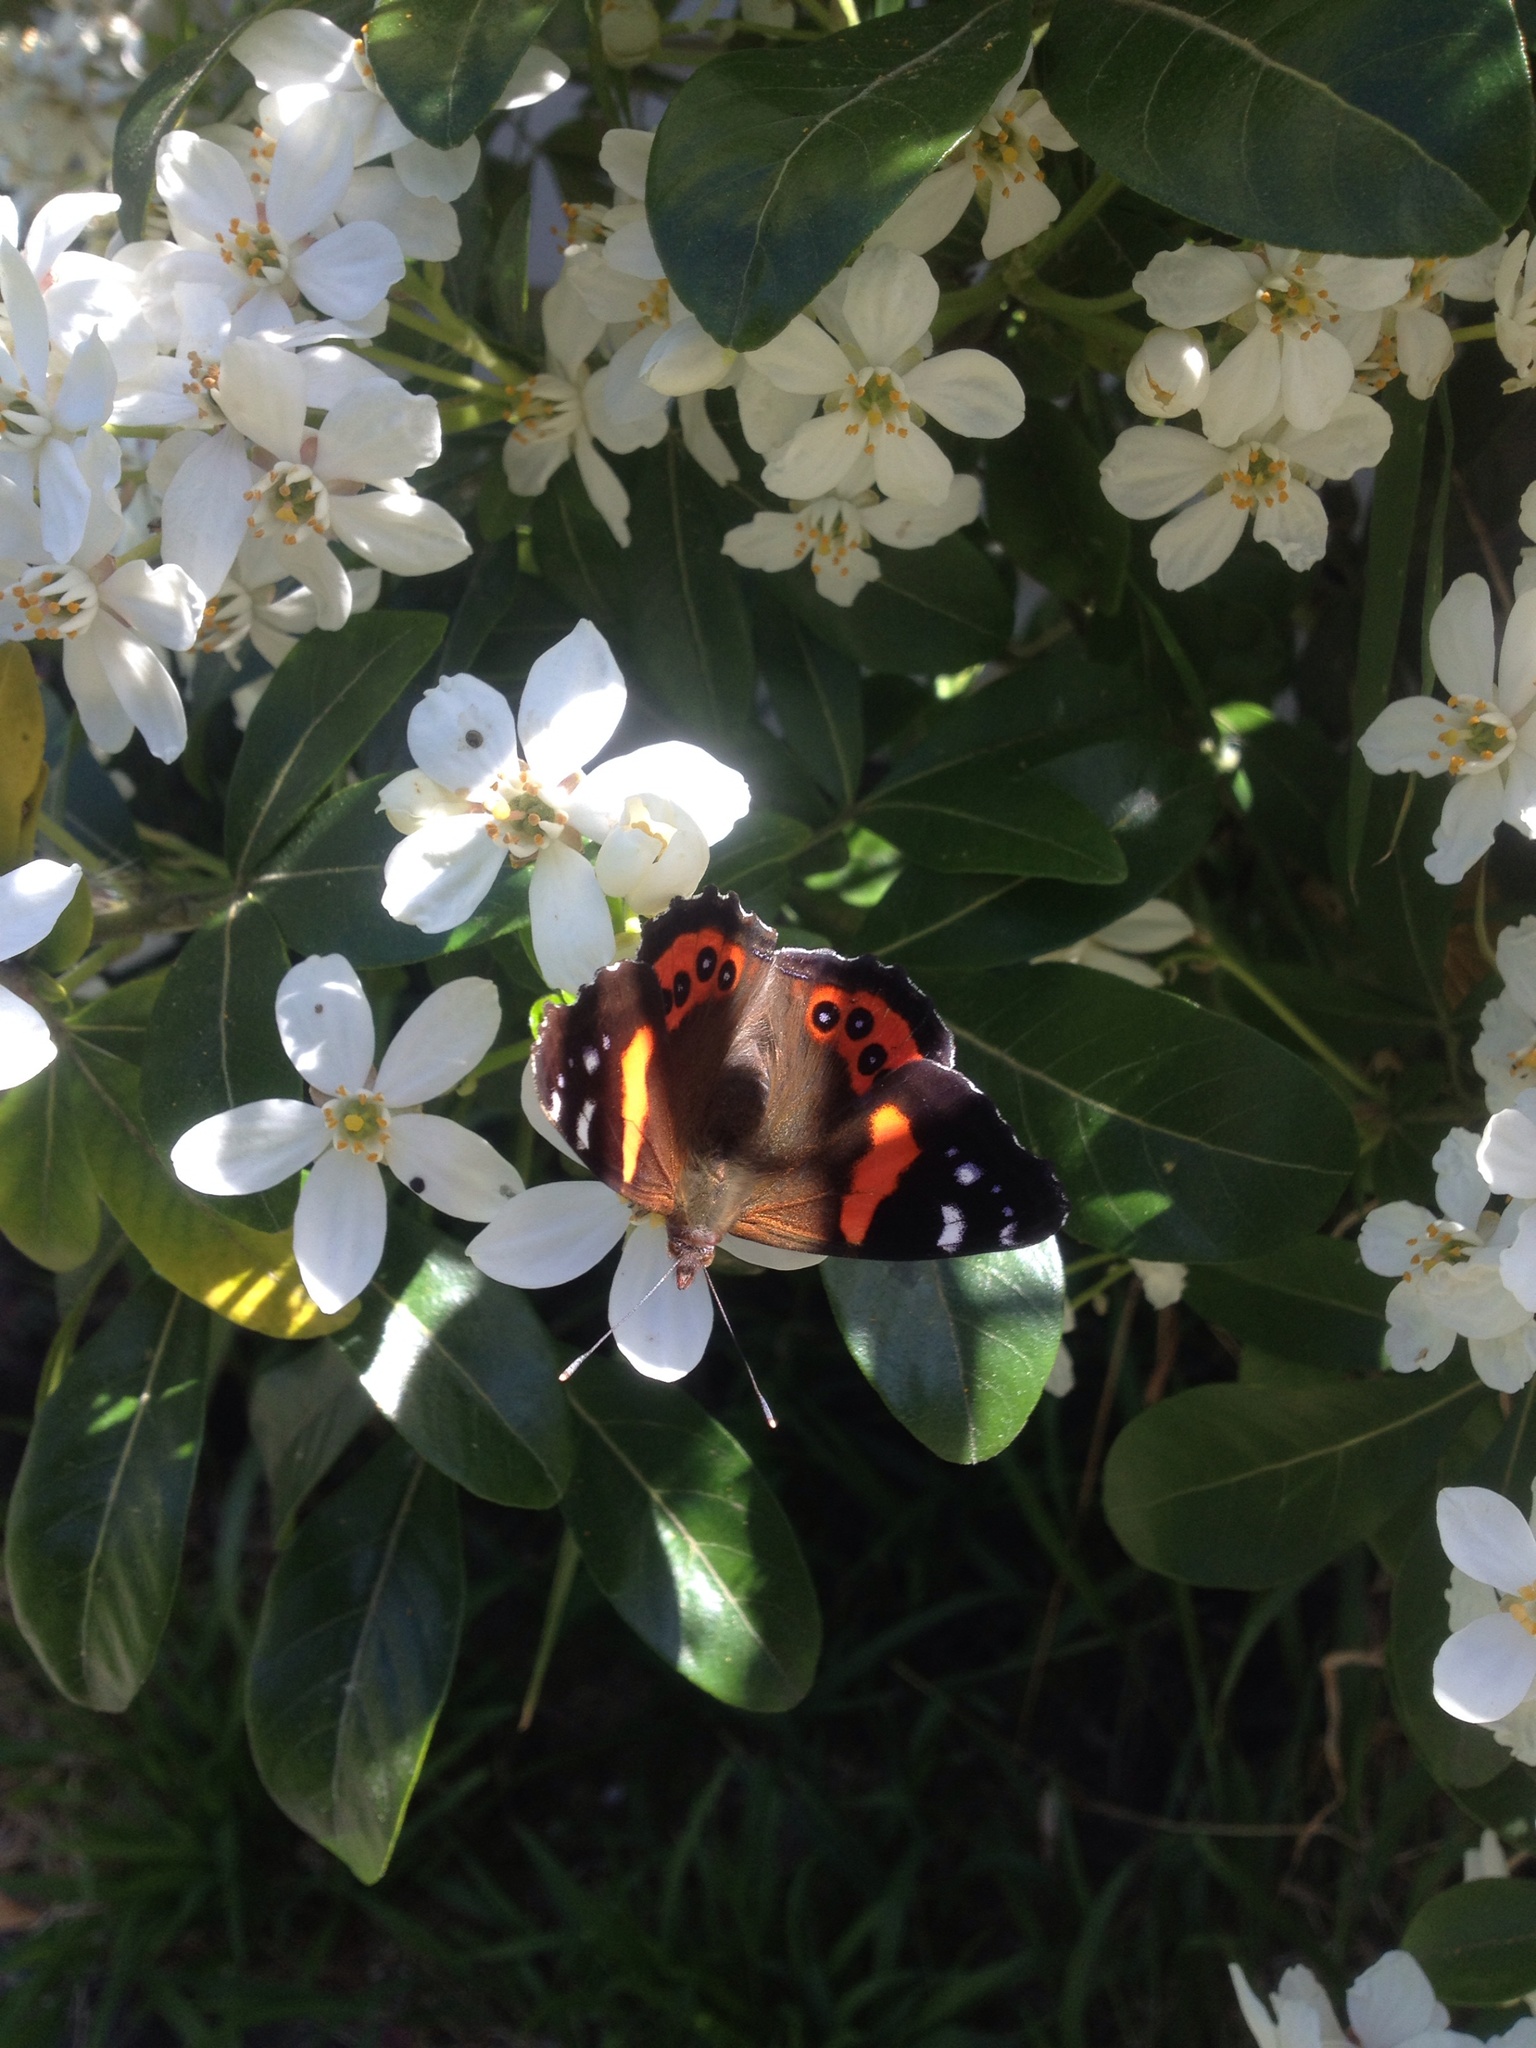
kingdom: Animalia
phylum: Arthropoda
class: Insecta
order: Lepidoptera
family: Nymphalidae
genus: Vanessa
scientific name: Vanessa gonerilla
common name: New zealand red admiral
